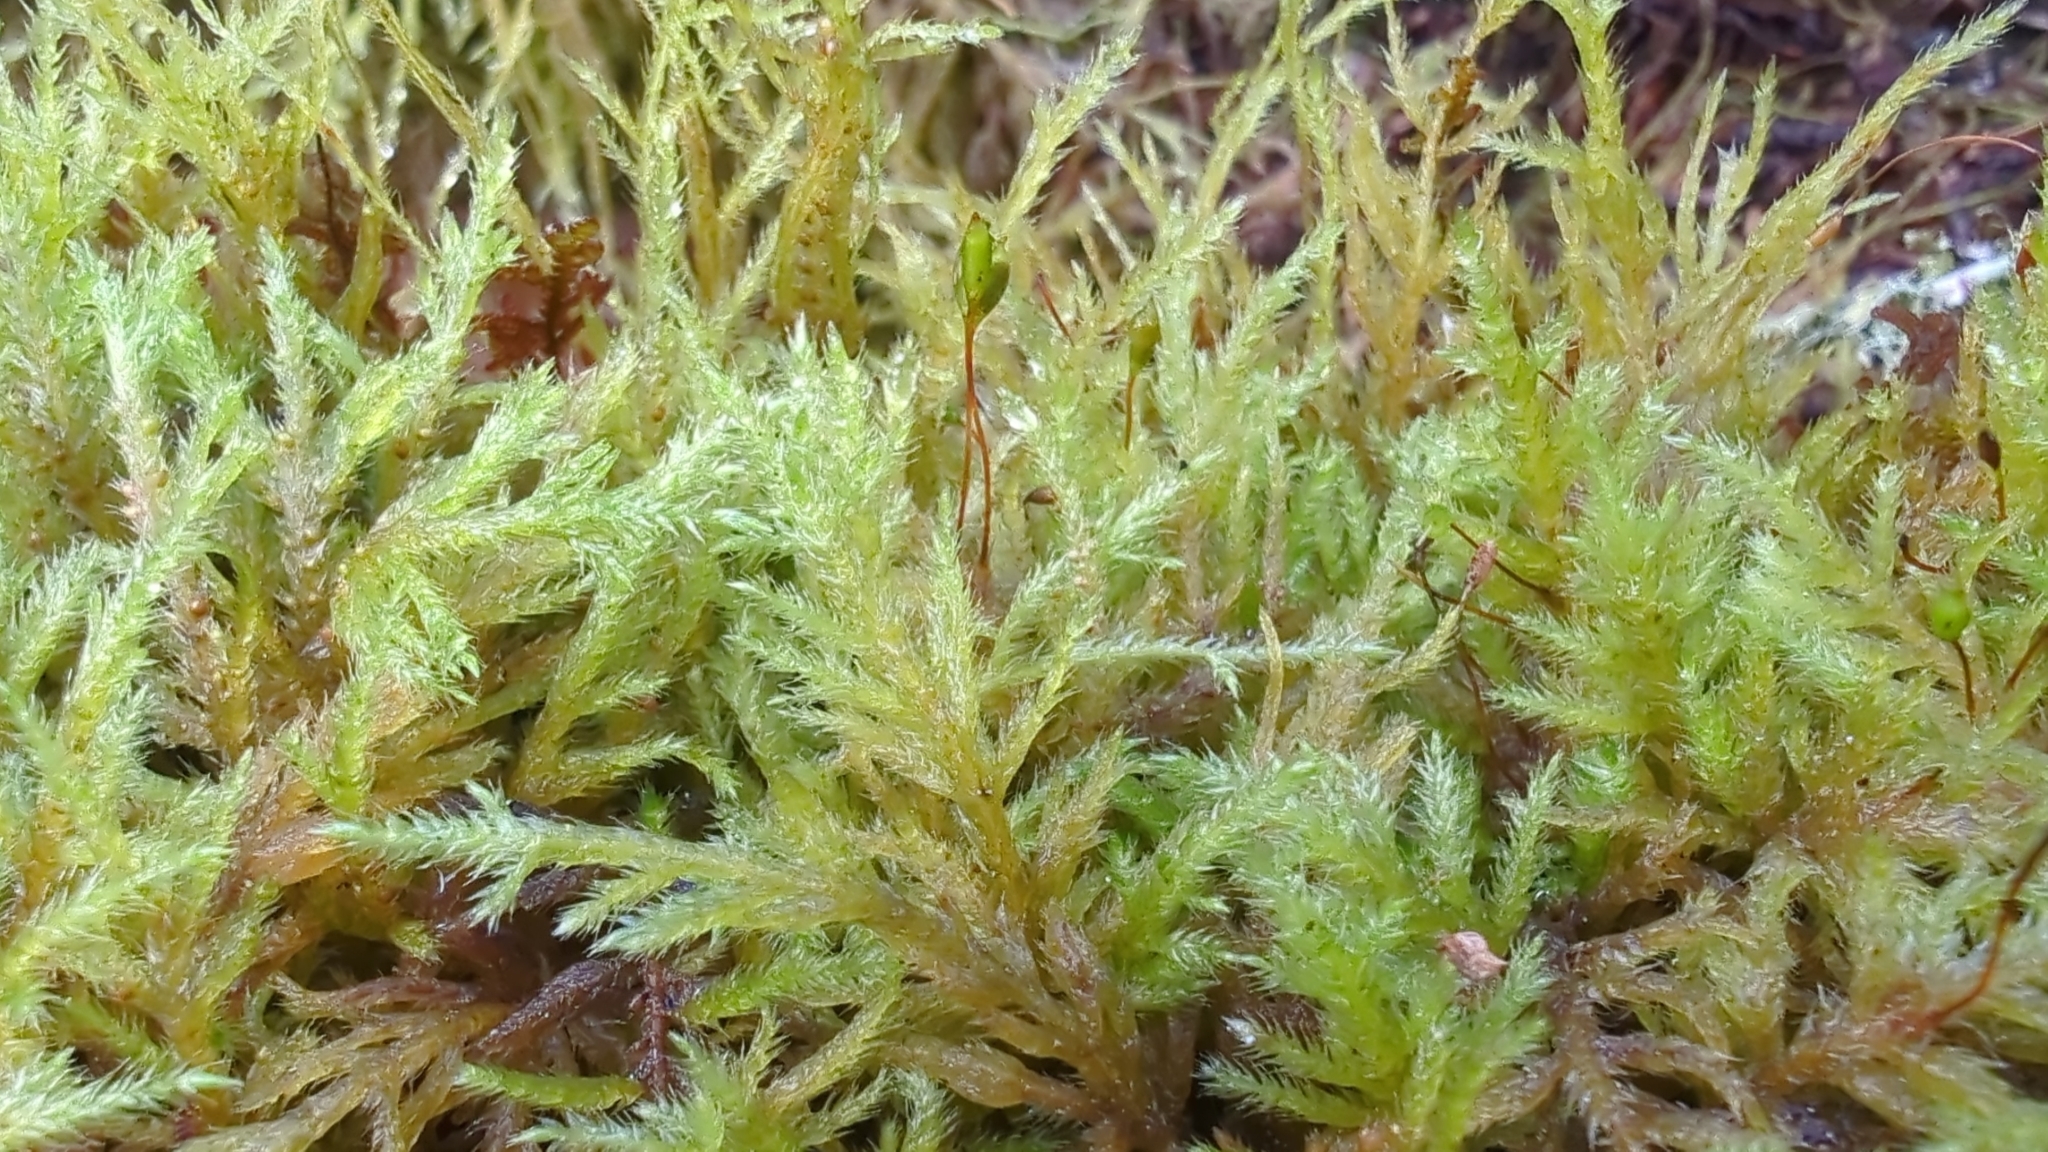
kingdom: Plantae
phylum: Bryophyta
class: Bryopsida
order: Hypnales
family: Lembophyllaceae
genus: Pseudisothecium
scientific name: Pseudisothecium stoloniferum
